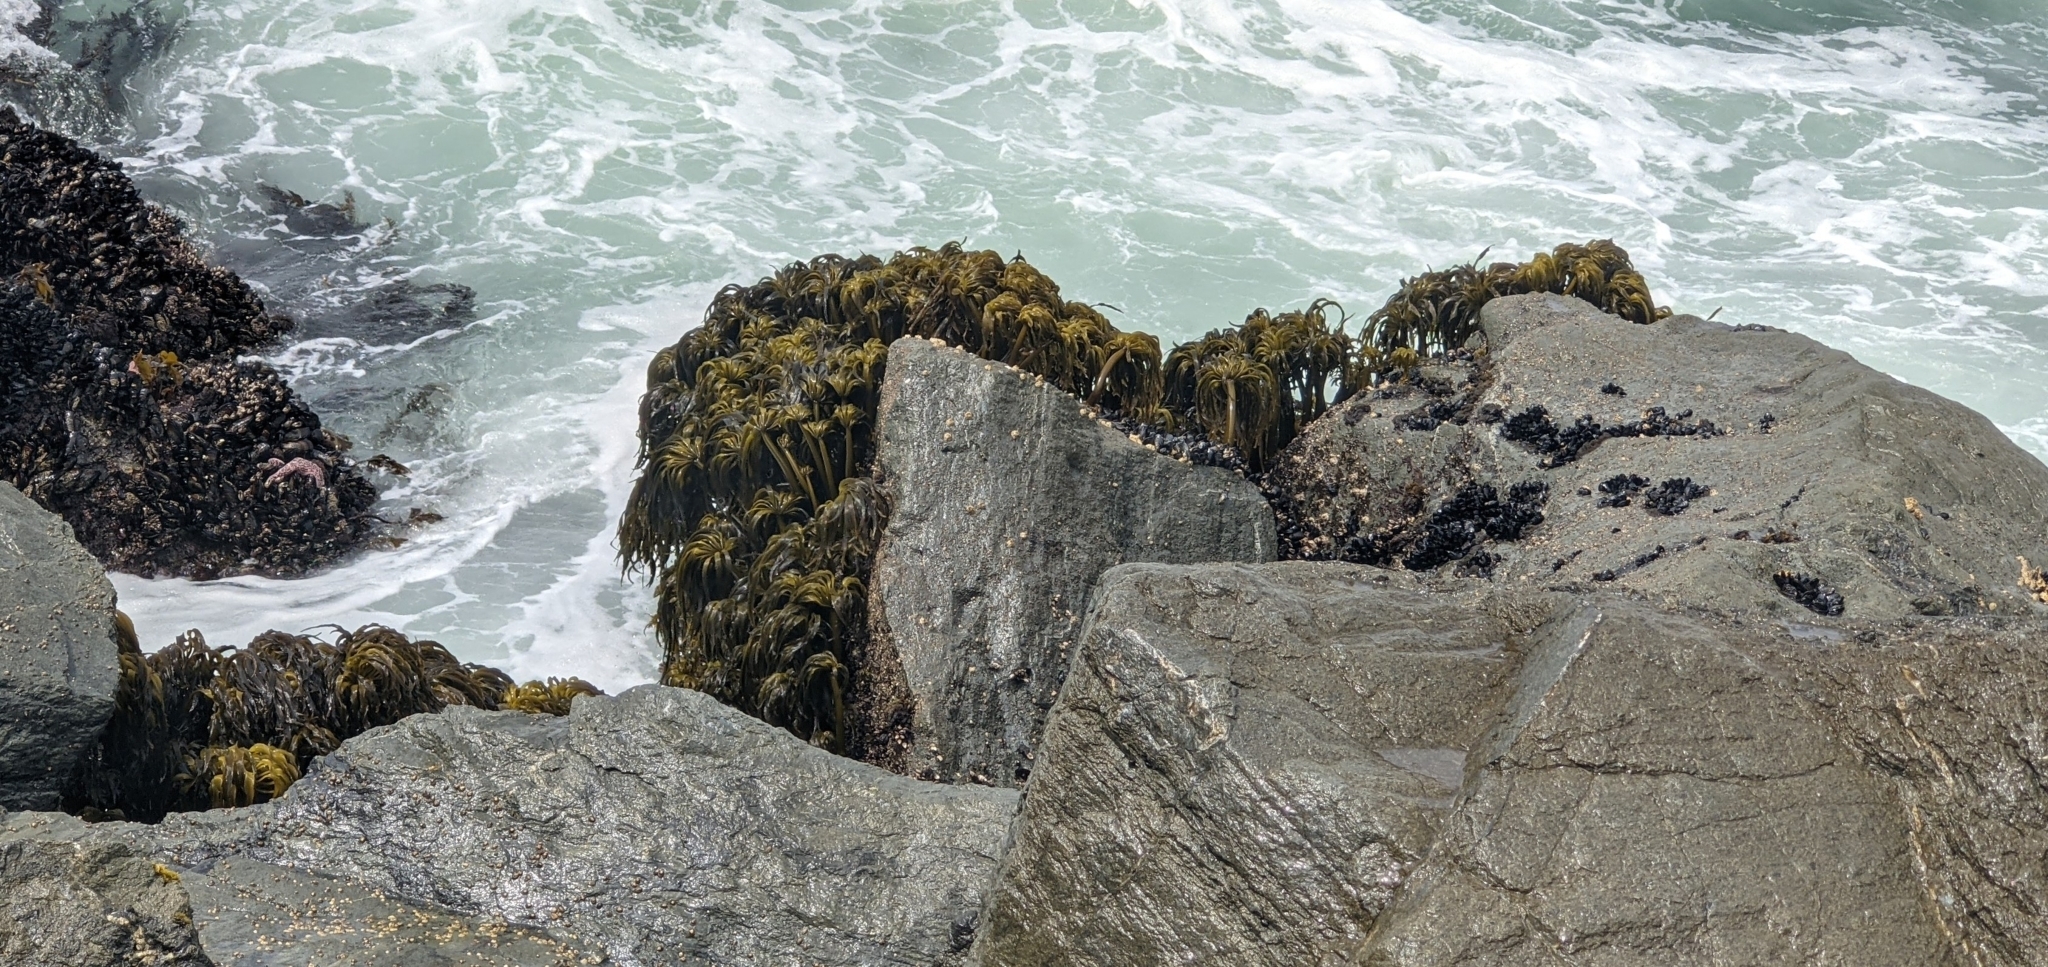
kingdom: Chromista
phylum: Ochrophyta
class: Phaeophyceae
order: Laminariales
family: Laminariaceae
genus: Postelsia
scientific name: Postelsia palmiformis
